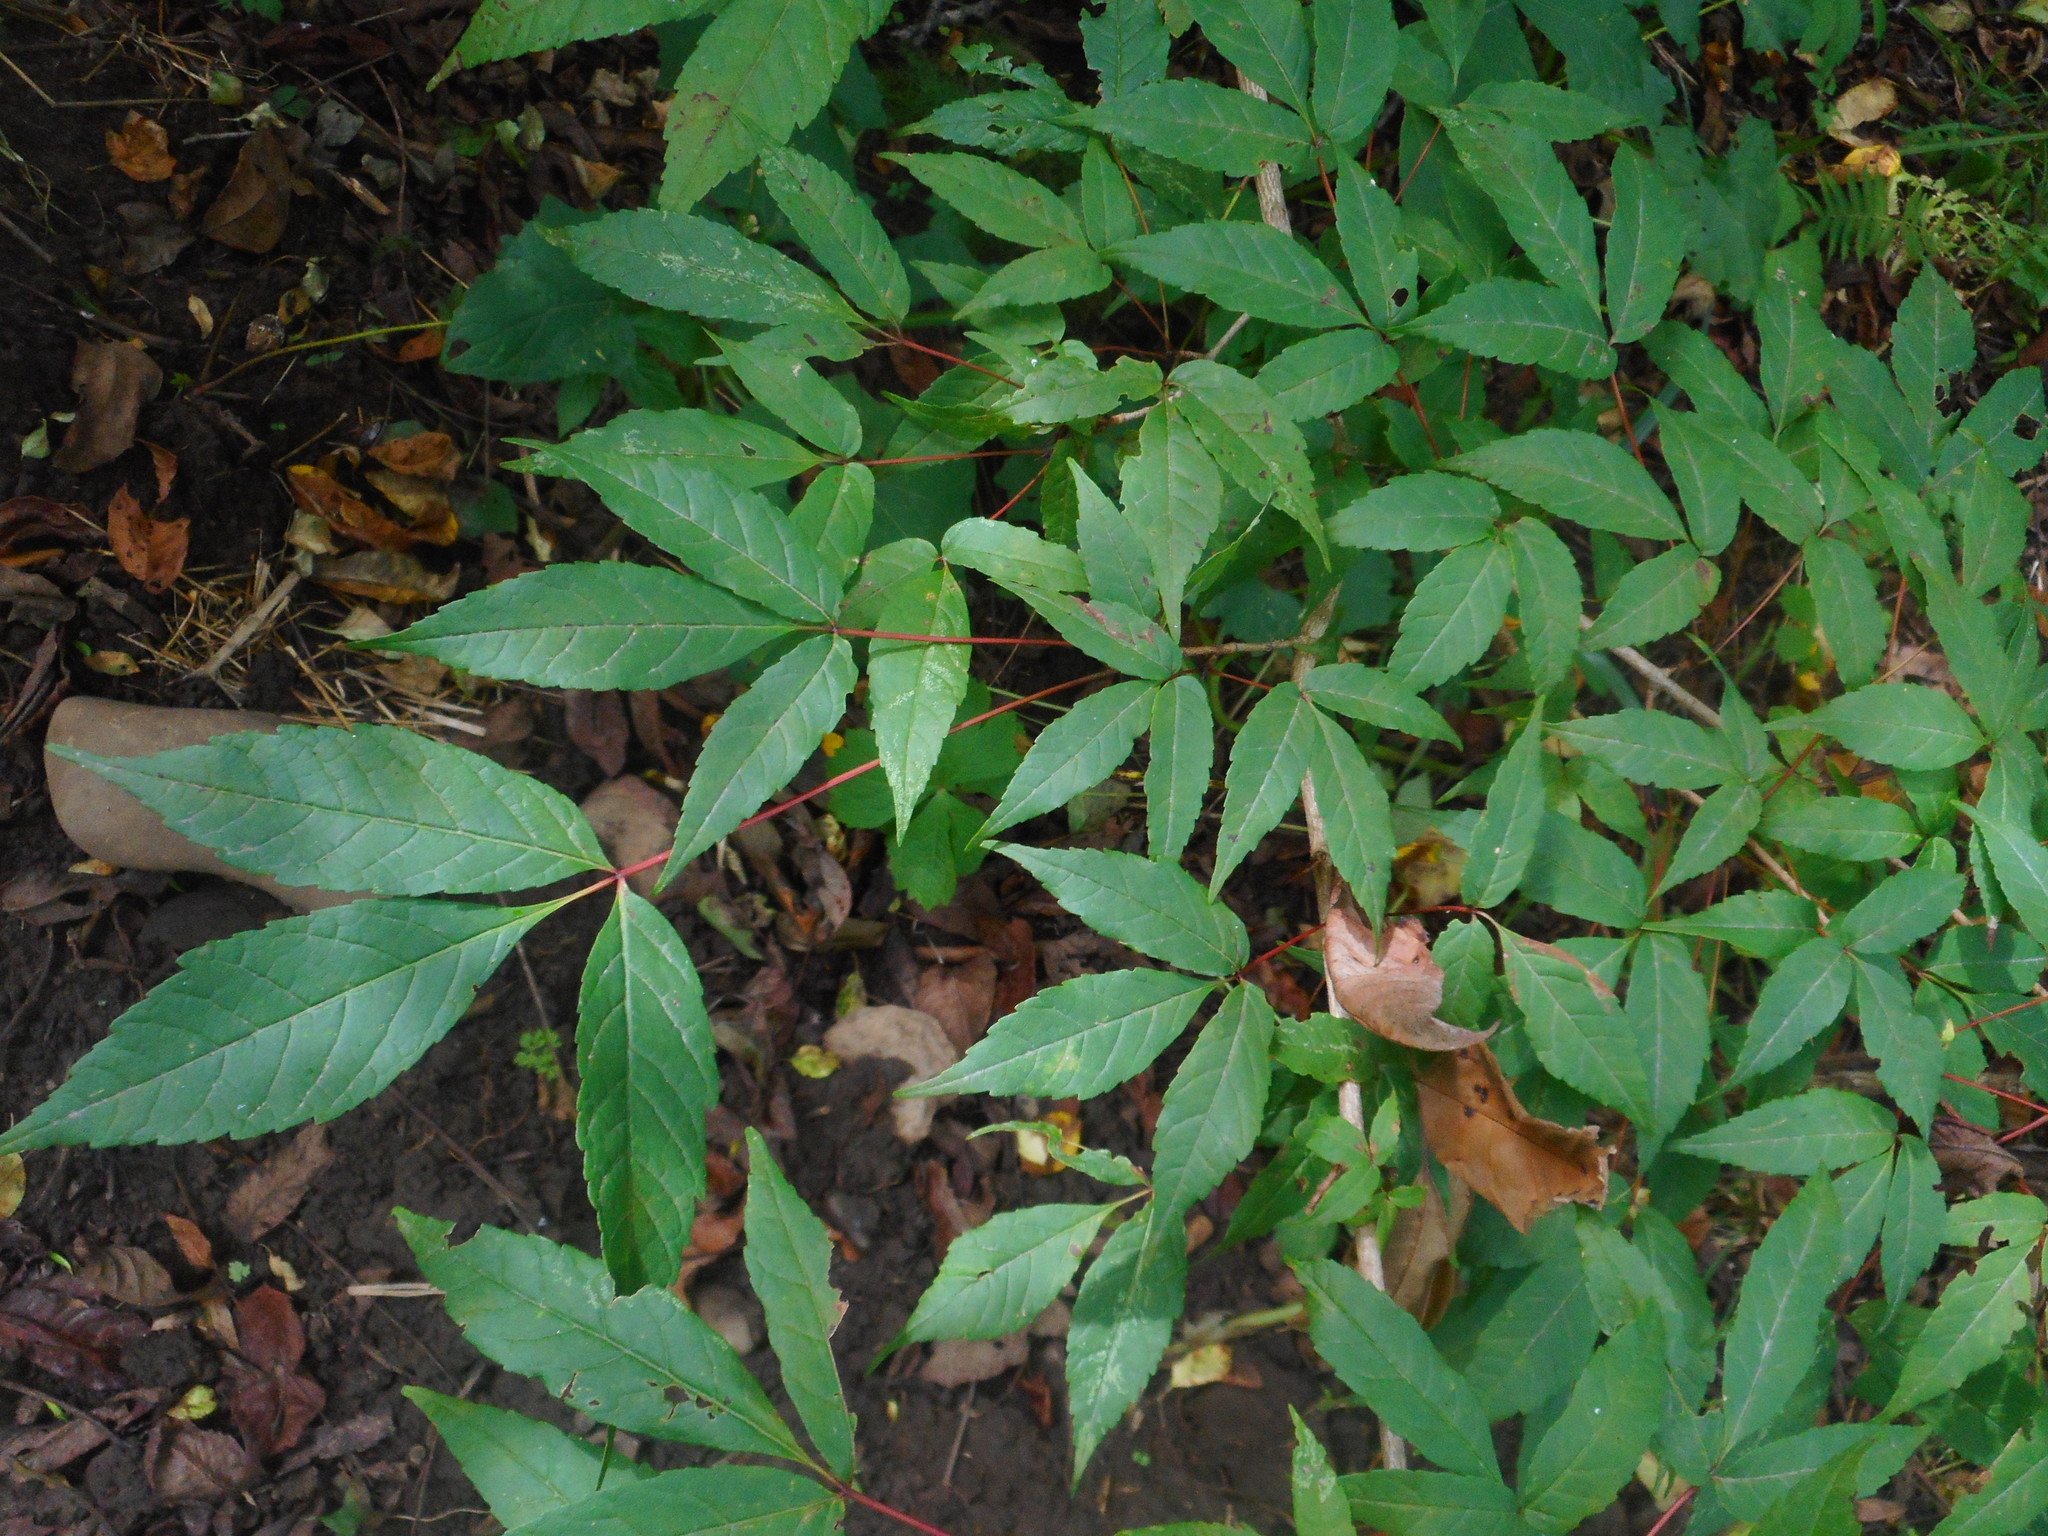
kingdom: Plantae
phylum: Tracheophyta
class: Magnoliopsida
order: Sapindales
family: Sapindaceae
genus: Acer
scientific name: Acer mandshuricum
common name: Manchurian maple
